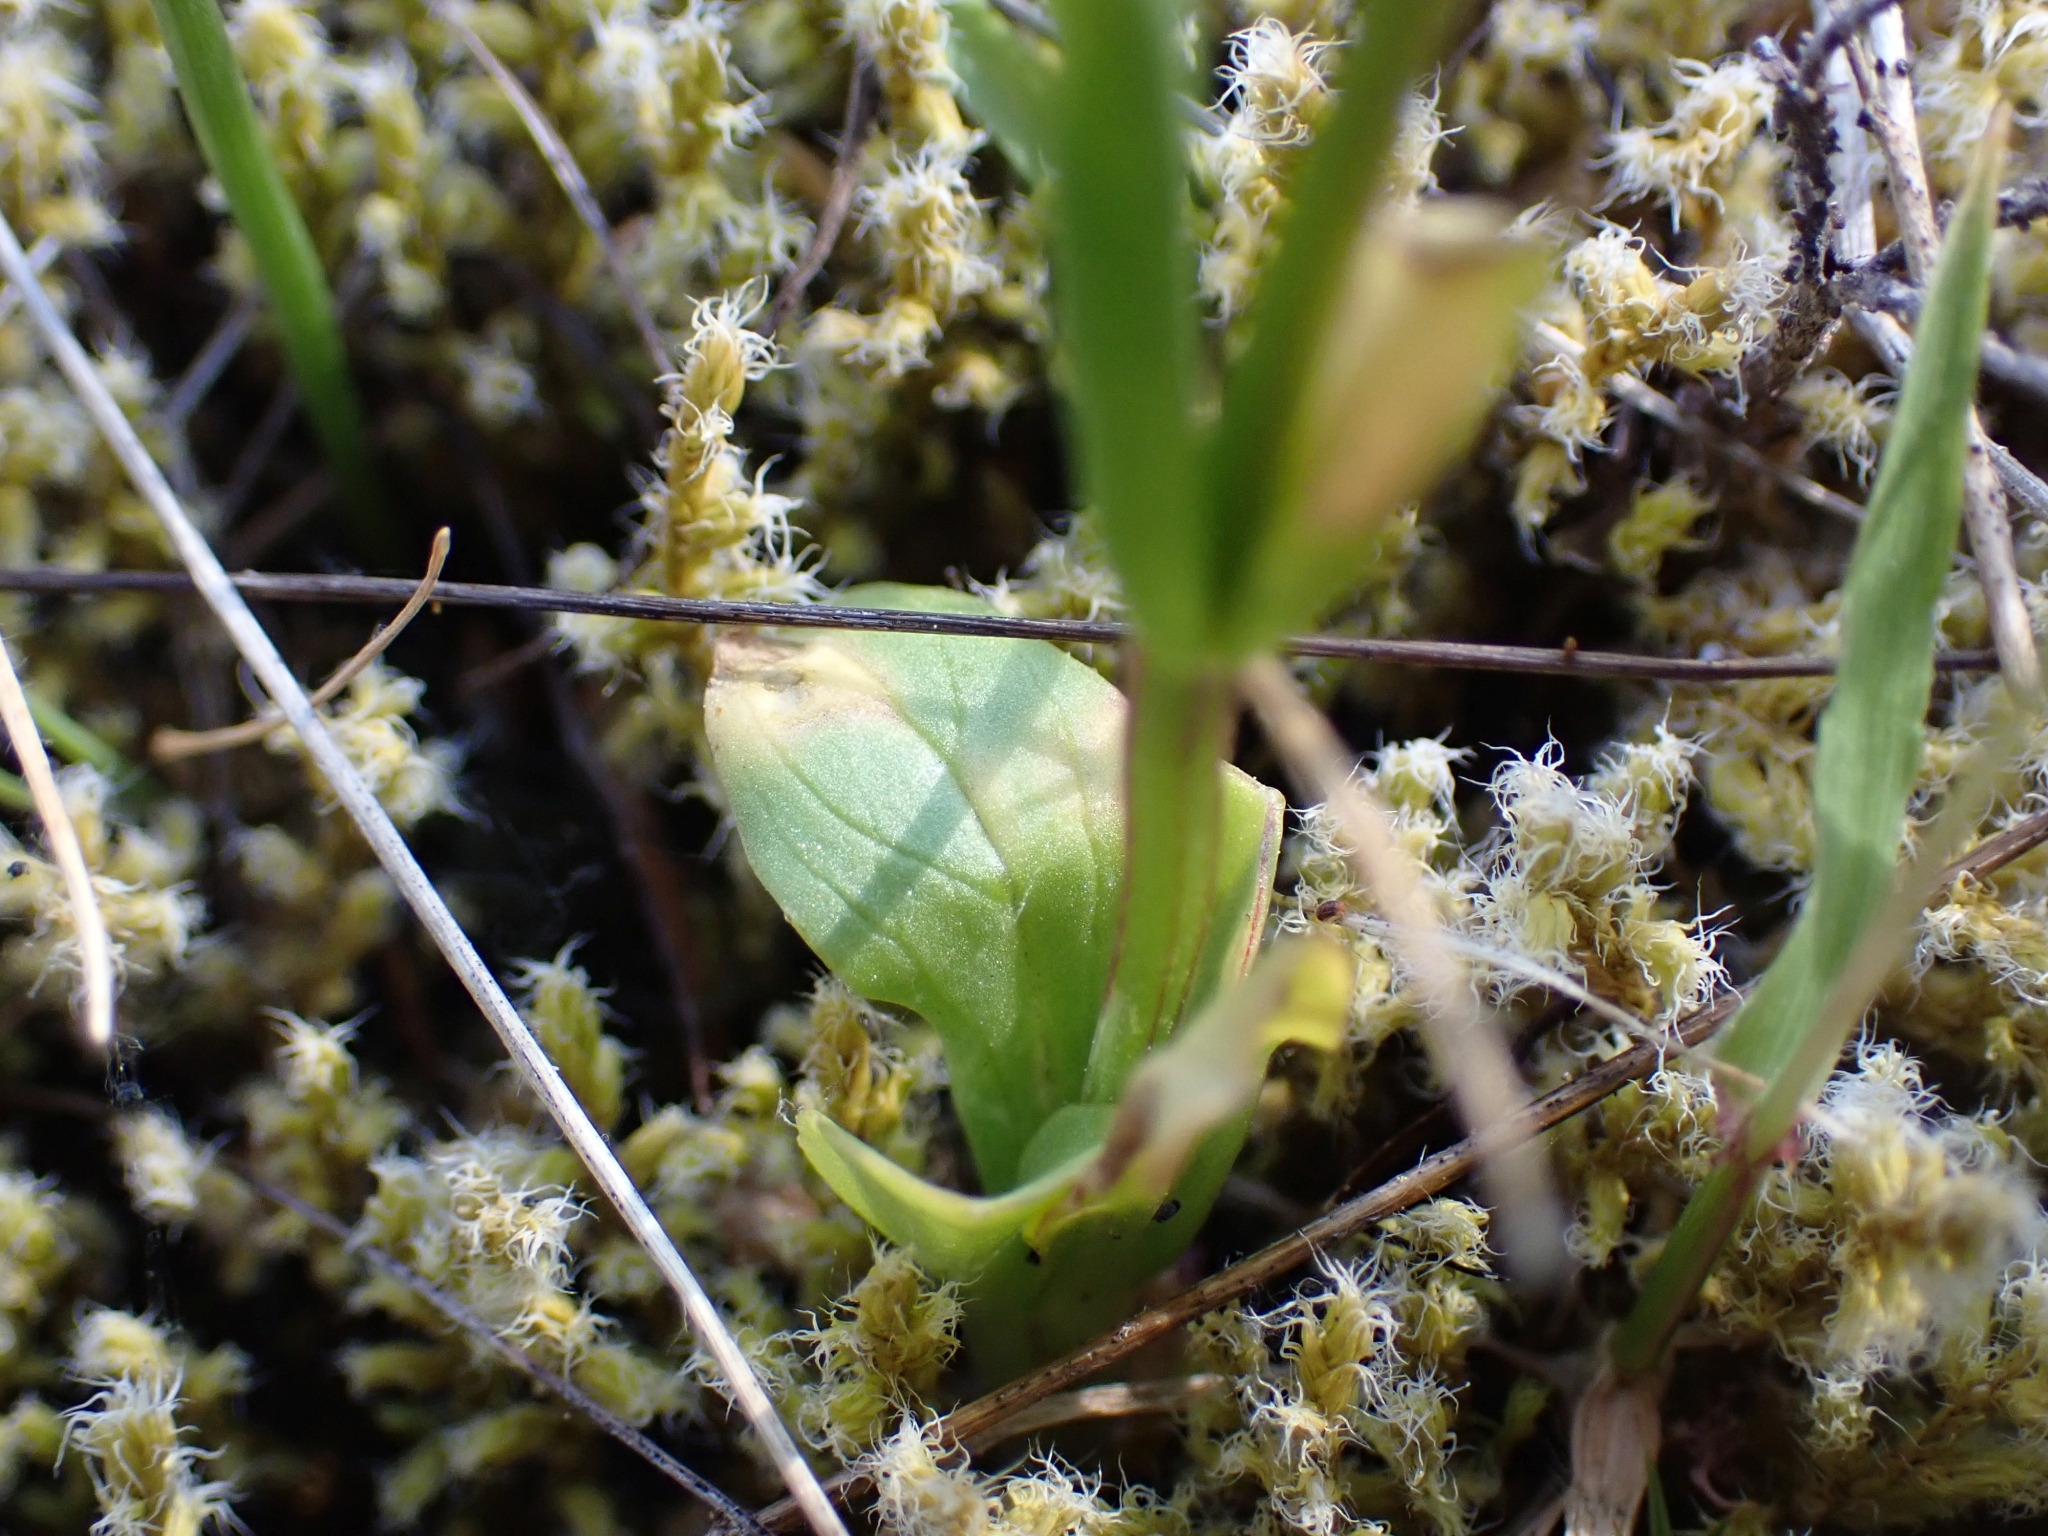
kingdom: Plantae
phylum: Tracheophyta
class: Magnoliopsida
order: Dipsacales
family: Caprifoliaceae
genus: Plectritis
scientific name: Plectritis congesta
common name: Pink plectritis
